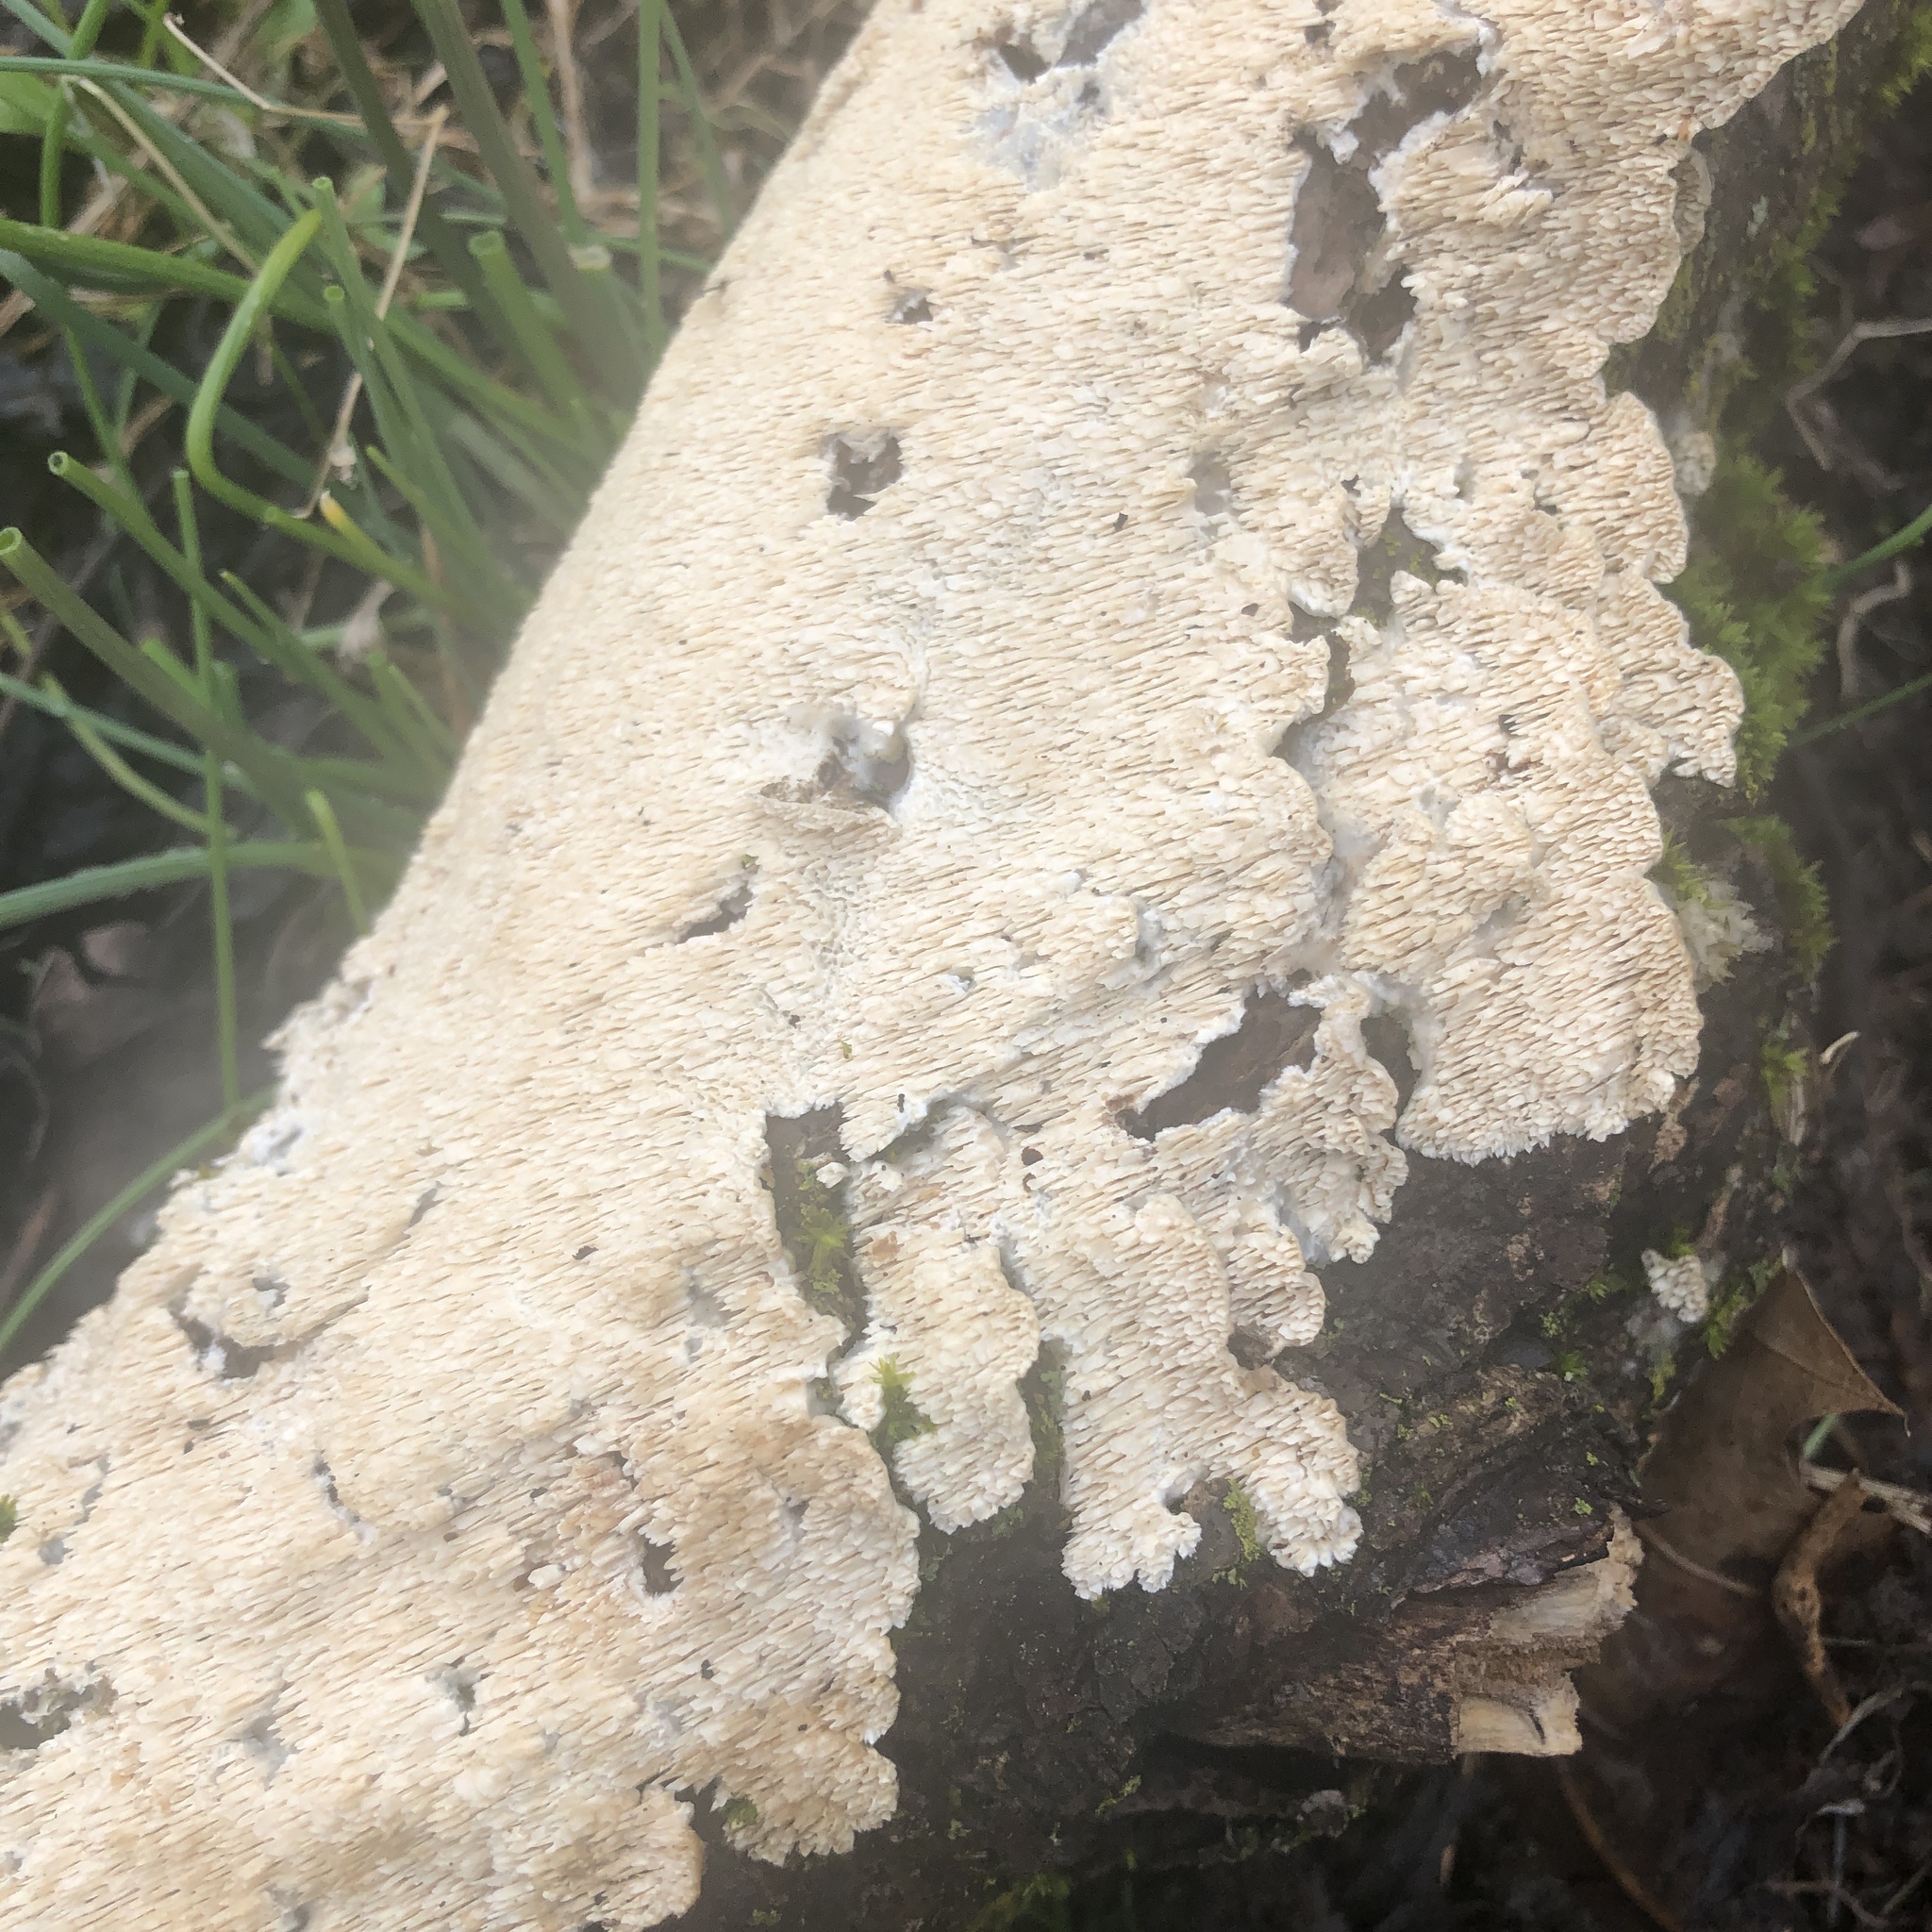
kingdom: Fungi
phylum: Basidiomycota
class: Agaricomycetes
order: Polyporales
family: Irpicaceae
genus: Irpex
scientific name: Irpex lacteus
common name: Milk-white toothed polypore
